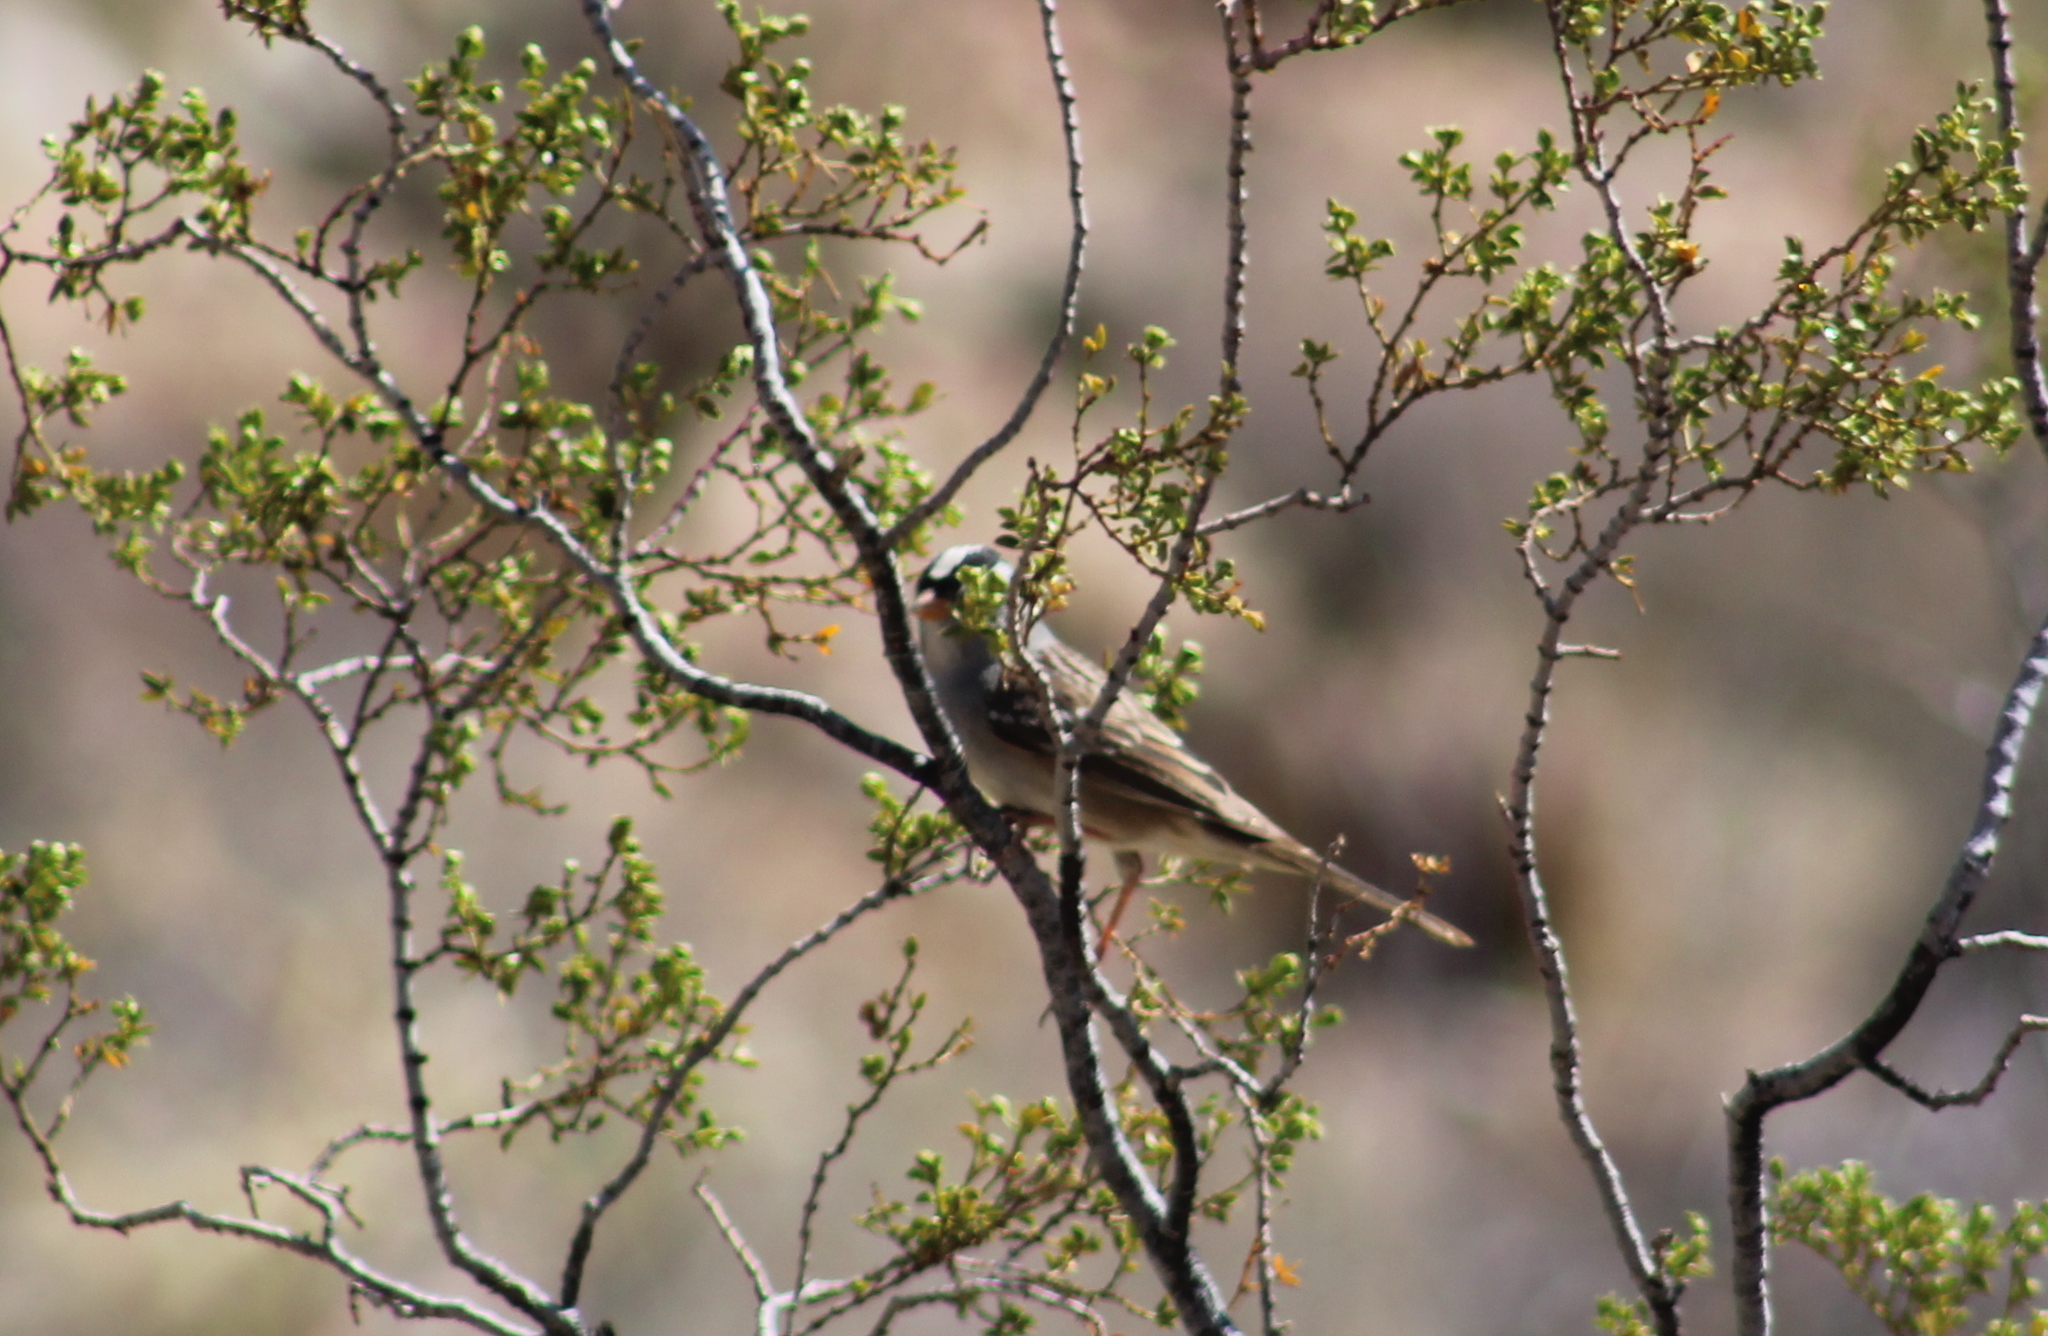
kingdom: Animalia
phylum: Chordata
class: Aves
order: Passeriformes
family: Passerellidae
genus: Zonotrichia
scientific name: Zonotrichia leucophrys
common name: White-crowned sparrow
